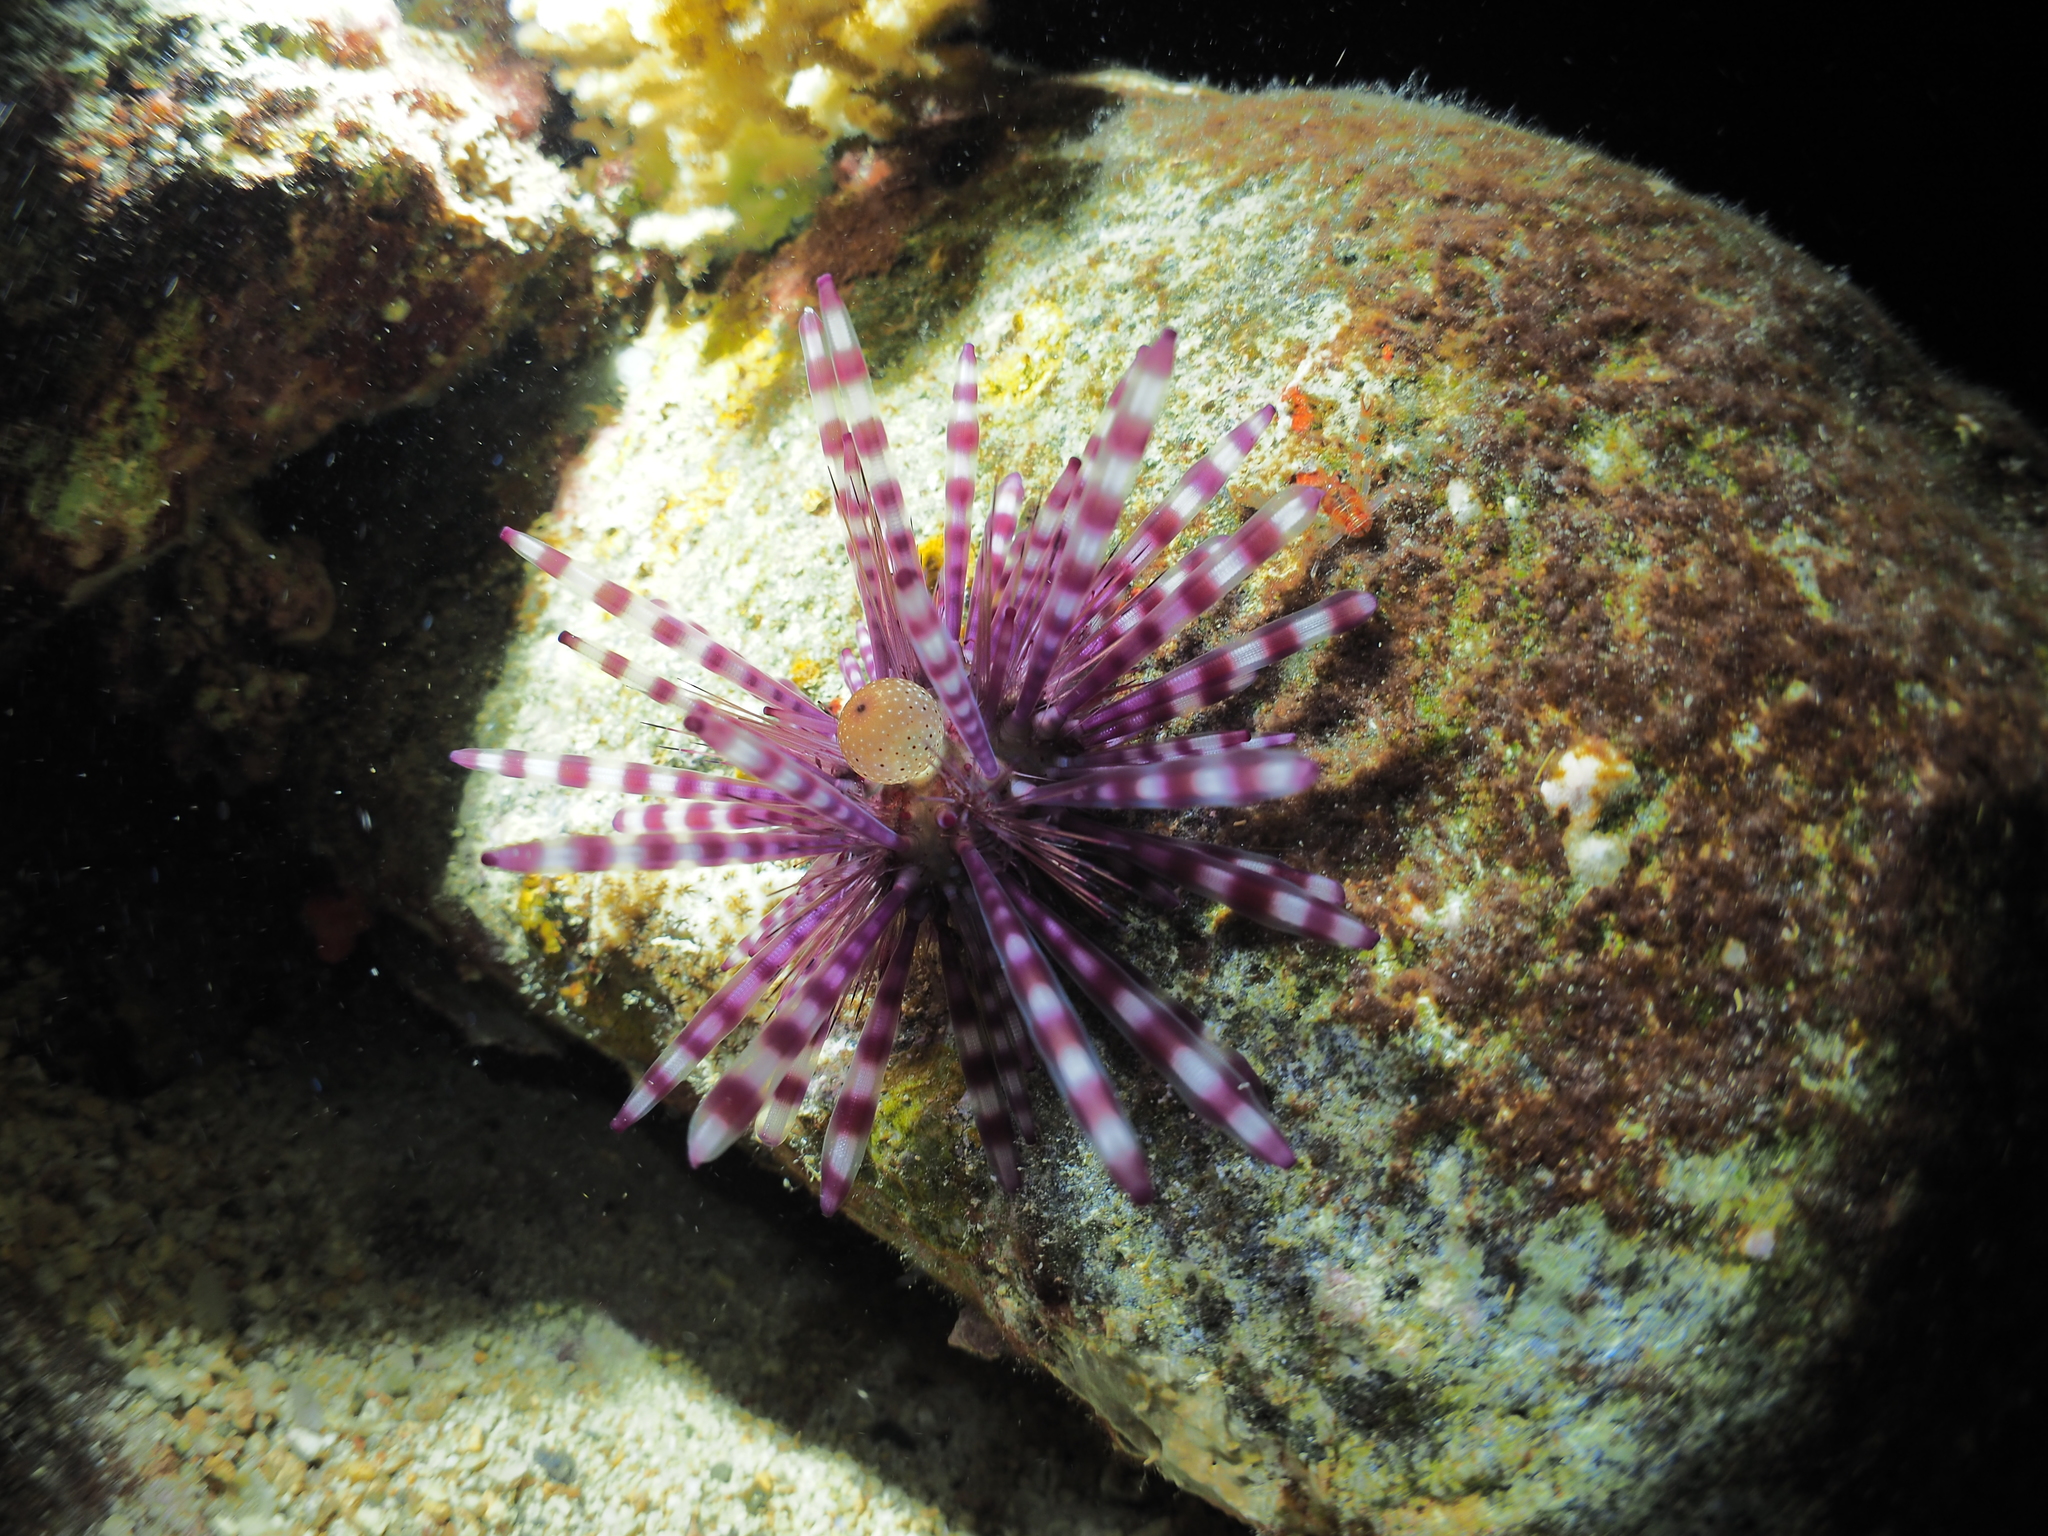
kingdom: Animalia
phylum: Echinodermata
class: Echinoidea
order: Diadematoida
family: Diadematidae
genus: Echinothrix
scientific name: Echinothrix calamaris
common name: Banded sea urchin
